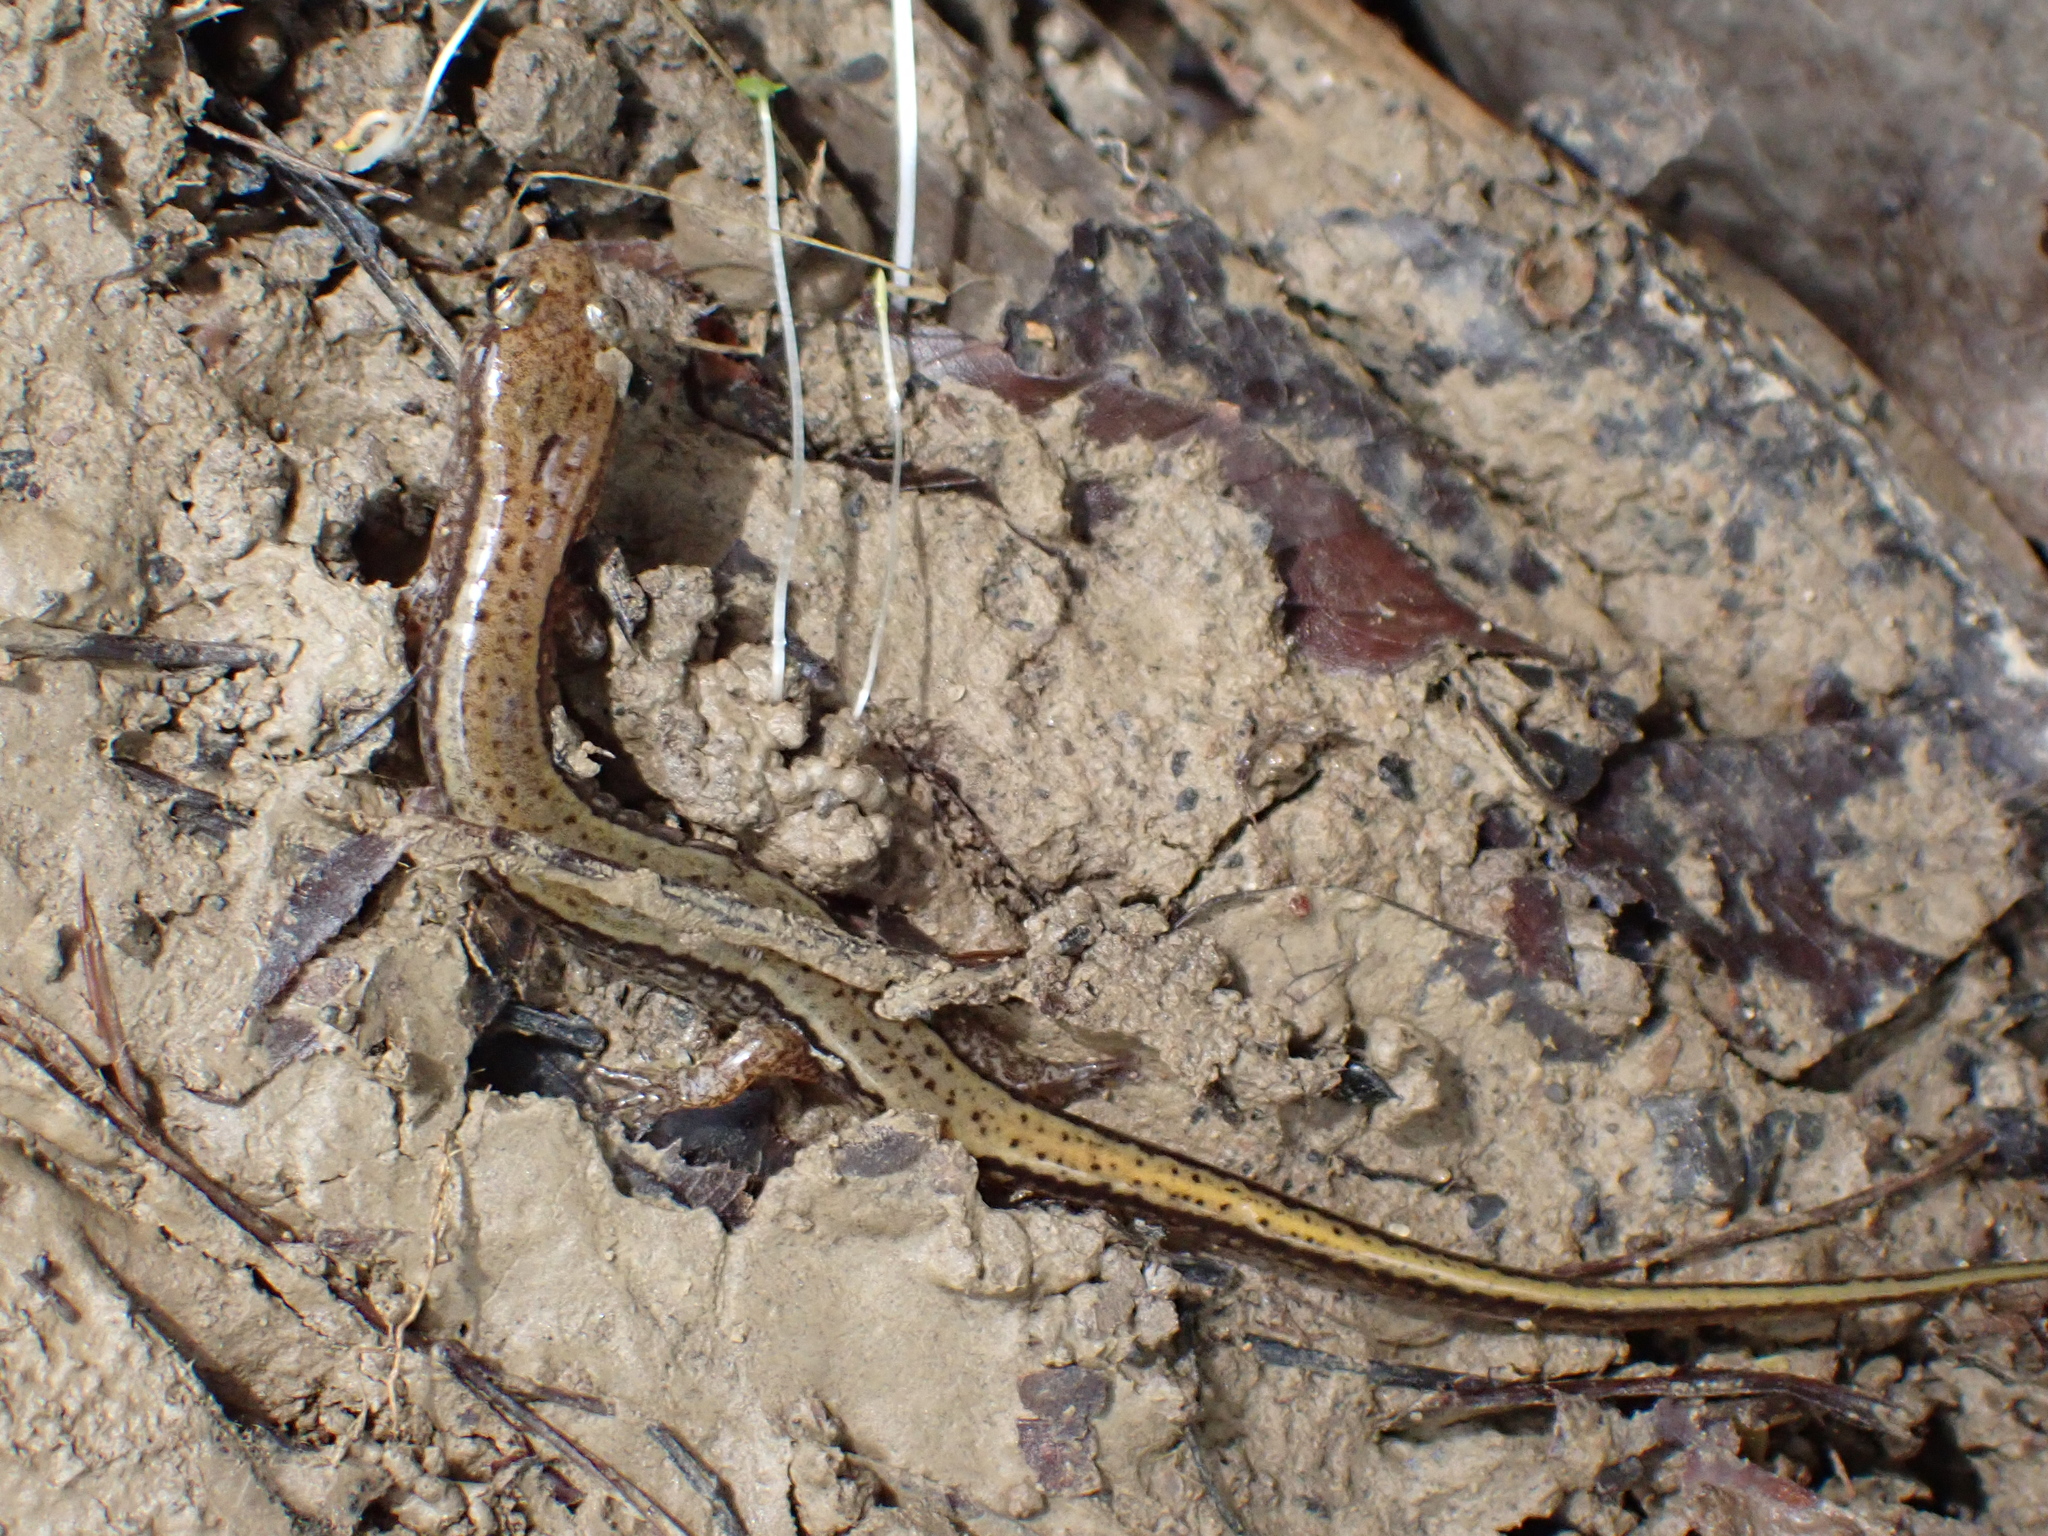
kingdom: Animalia
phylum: Chordata
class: Amphibia
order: Caudata
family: Plethodontidae
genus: Eurycea
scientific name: Eurycea cirrigera
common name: Southern two-lined salamander
